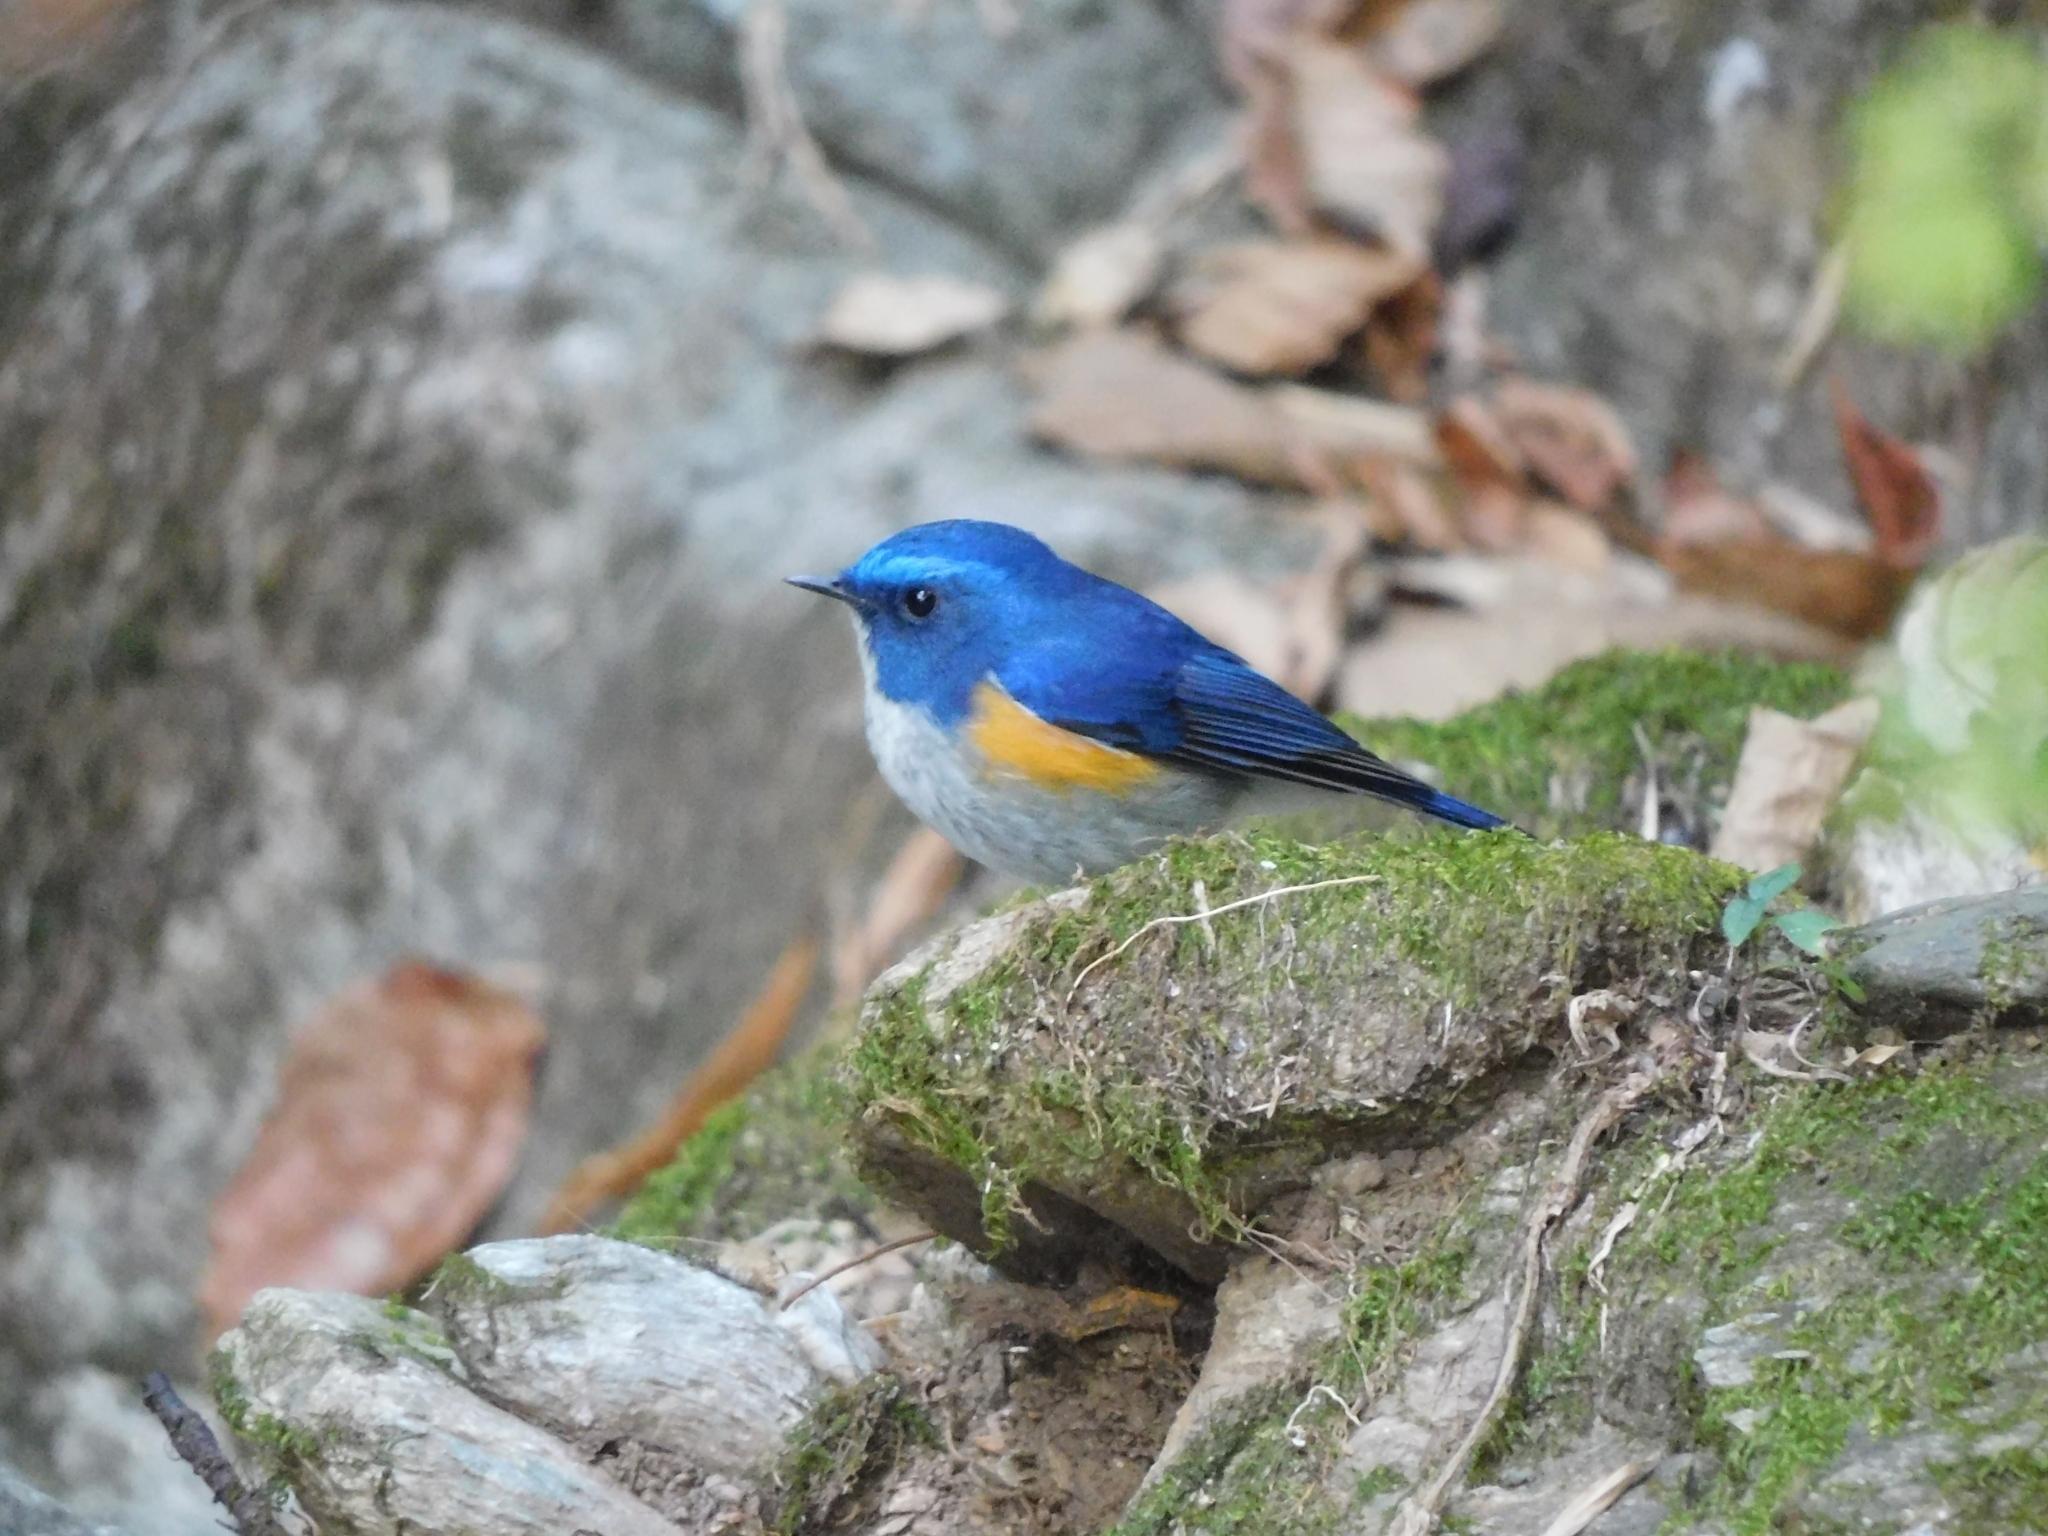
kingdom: Animalia
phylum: Chordata
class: Aves
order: Passeriformes
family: Muscicapidae
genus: Tarsiger
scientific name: Tarsiger rufilatus
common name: Himalayan bluetail
